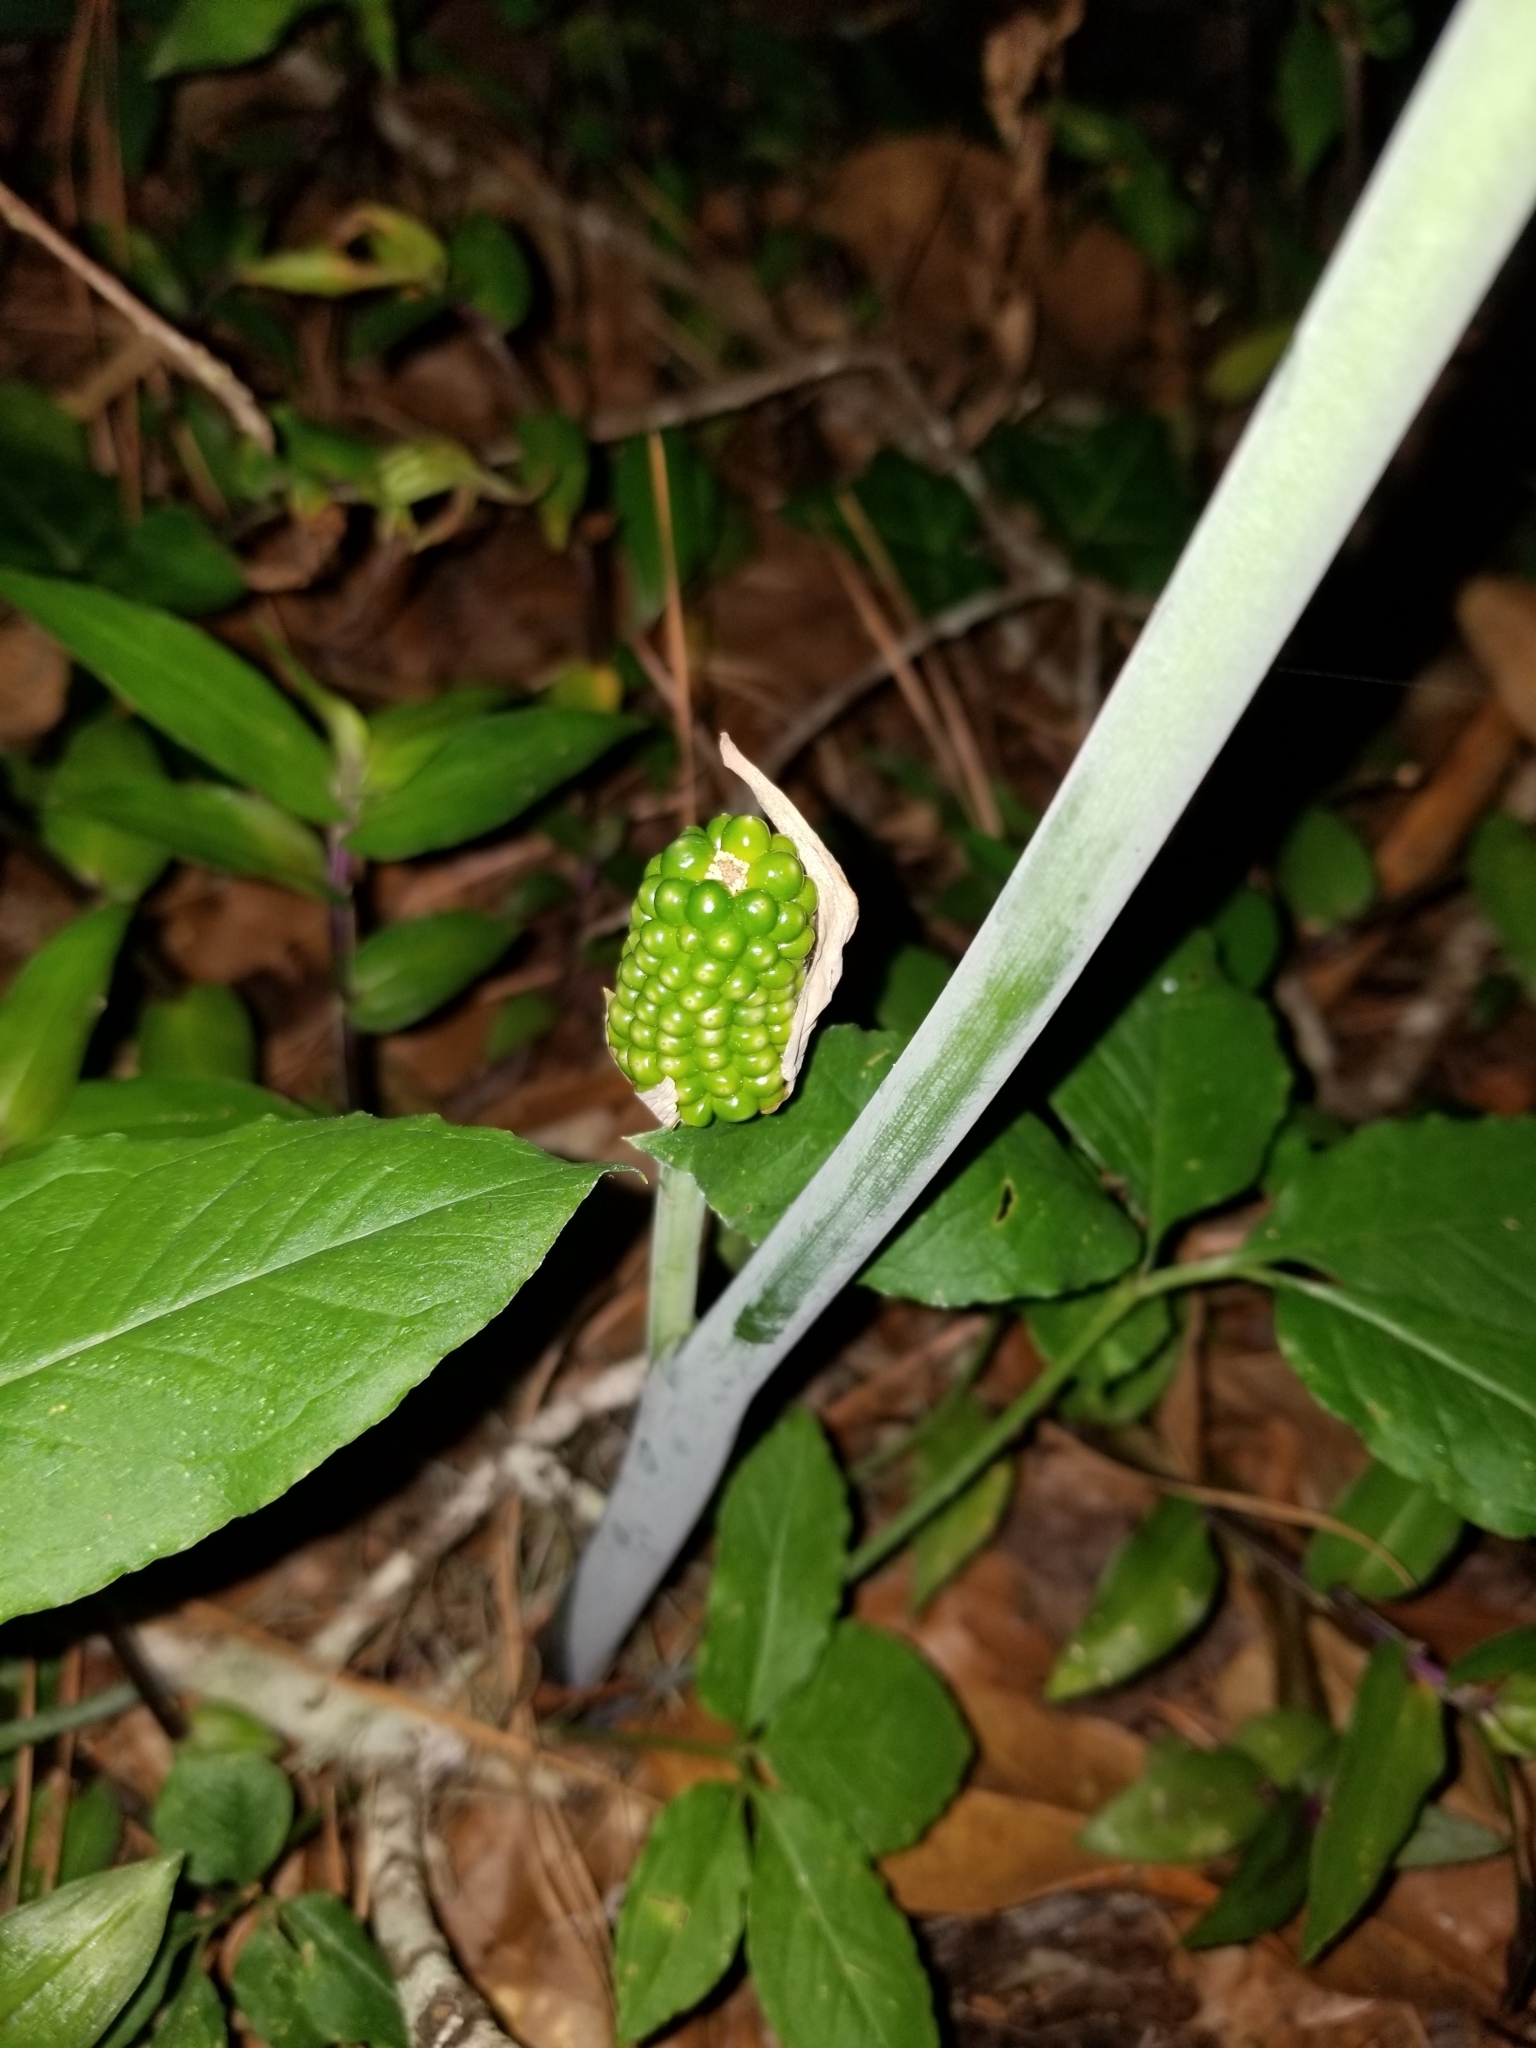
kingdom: Plantae
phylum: Tracheophyta
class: Liliopsida
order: Alismatales
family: Araceae
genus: Arisaema
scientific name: Arisaema dracontium
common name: Dragon-arum
